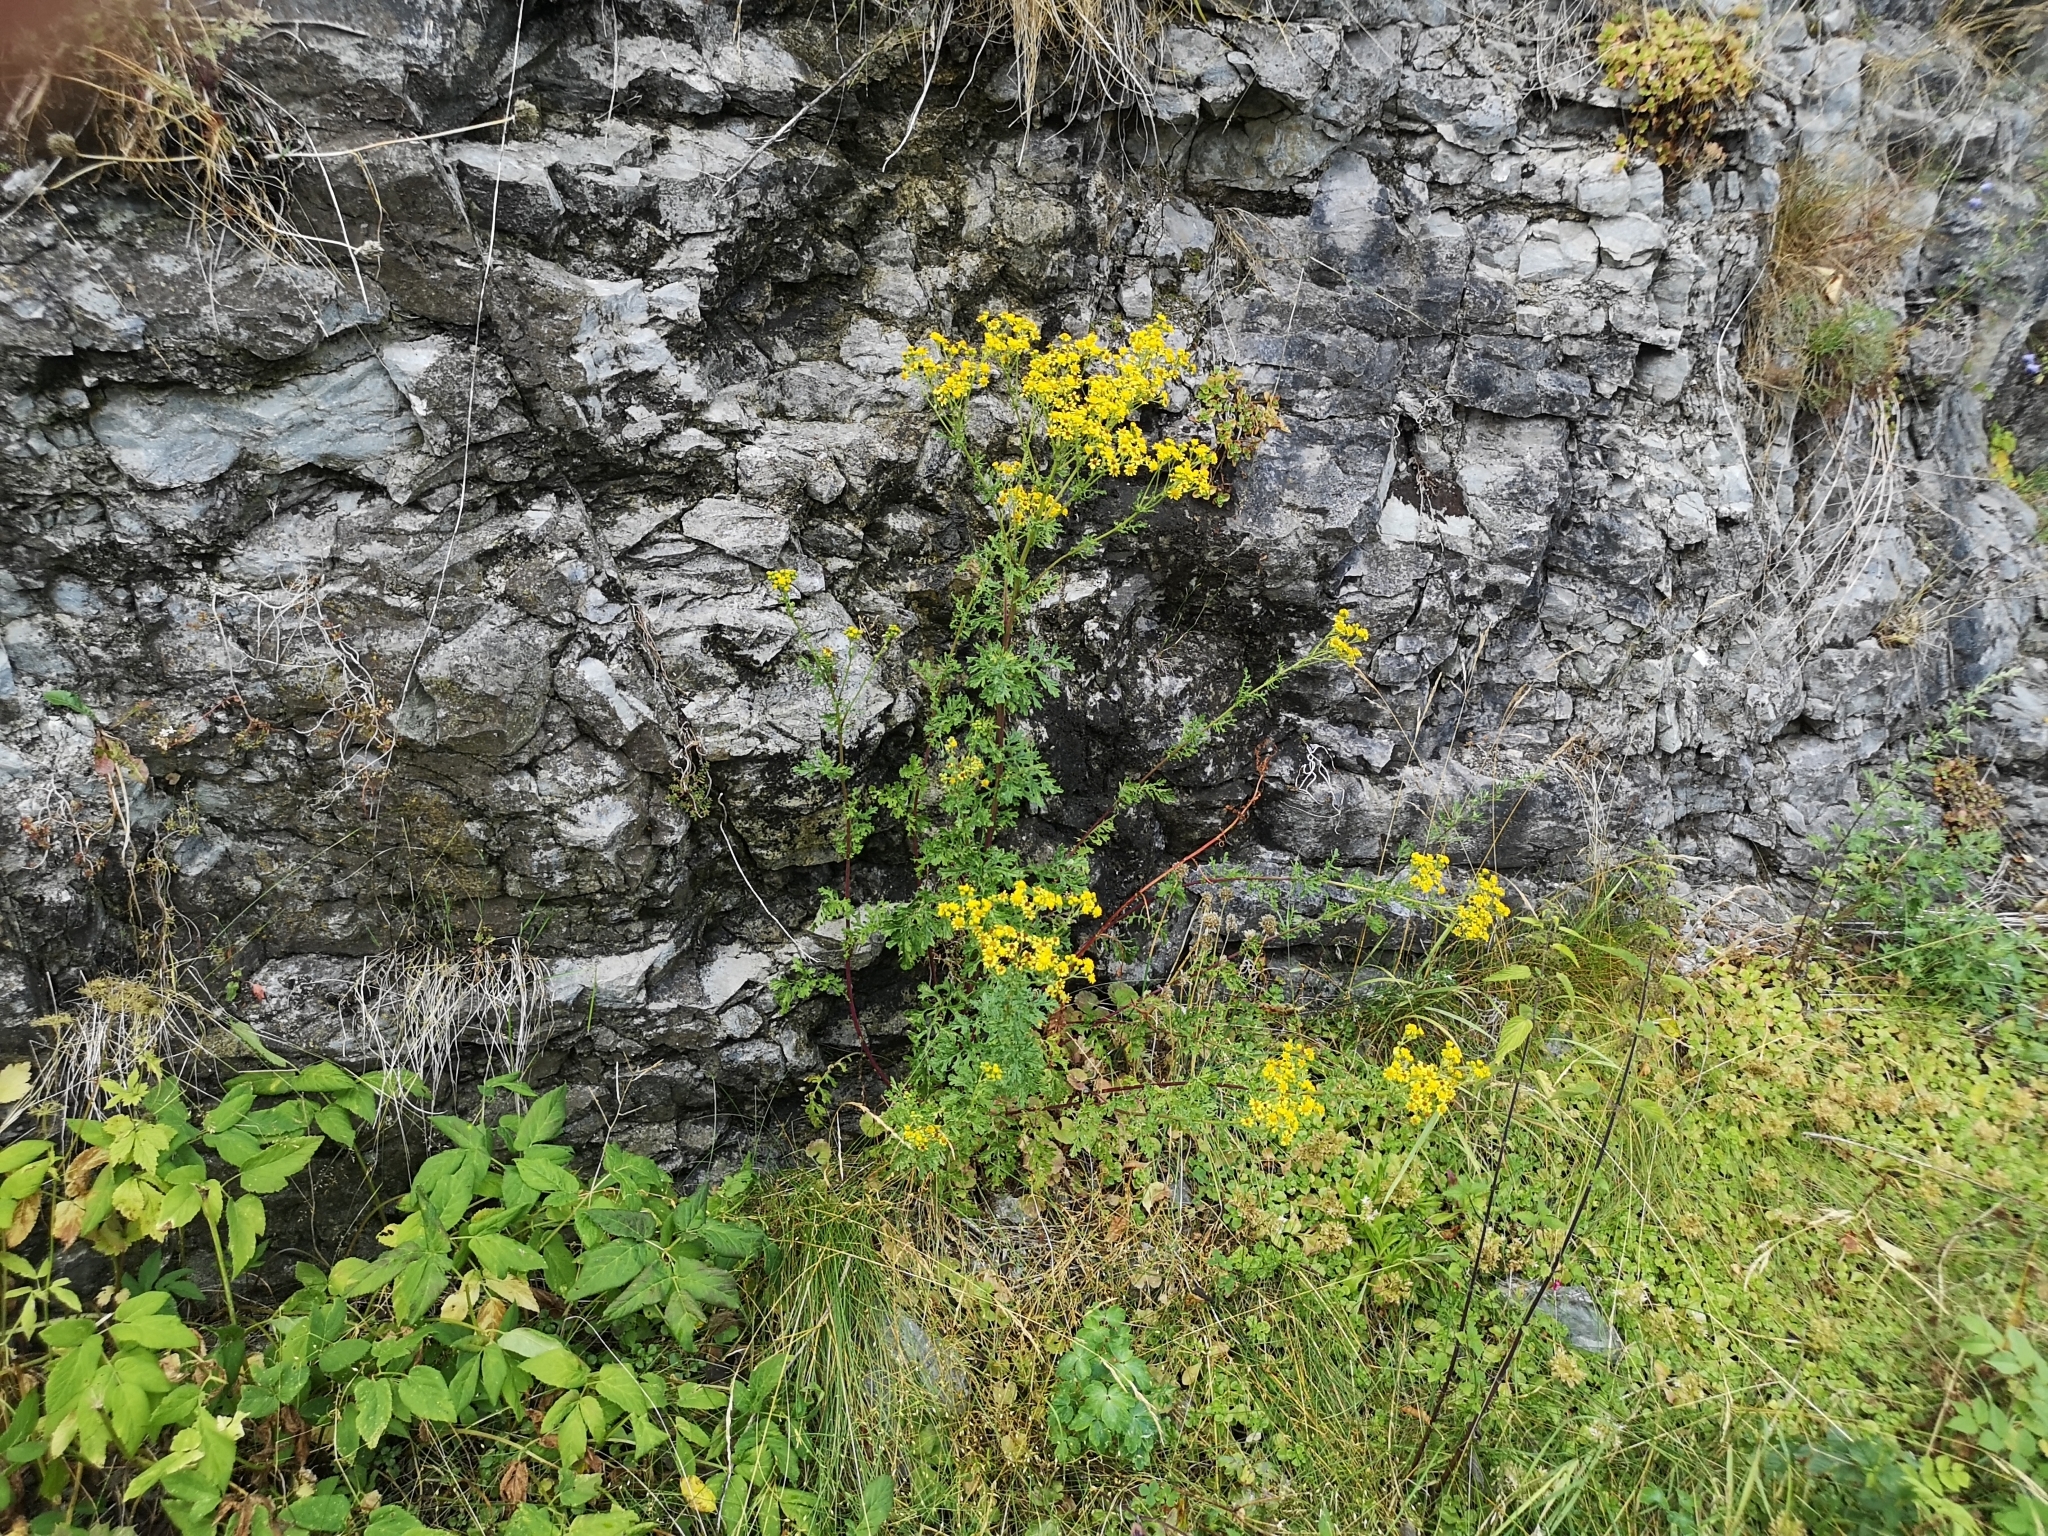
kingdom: Plantae
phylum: Tracheophyta
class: Magnoliopsida
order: Asterales
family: Asteraceae
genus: Jacobaea
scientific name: Jacobaea vulgaris
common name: Stinking willie
